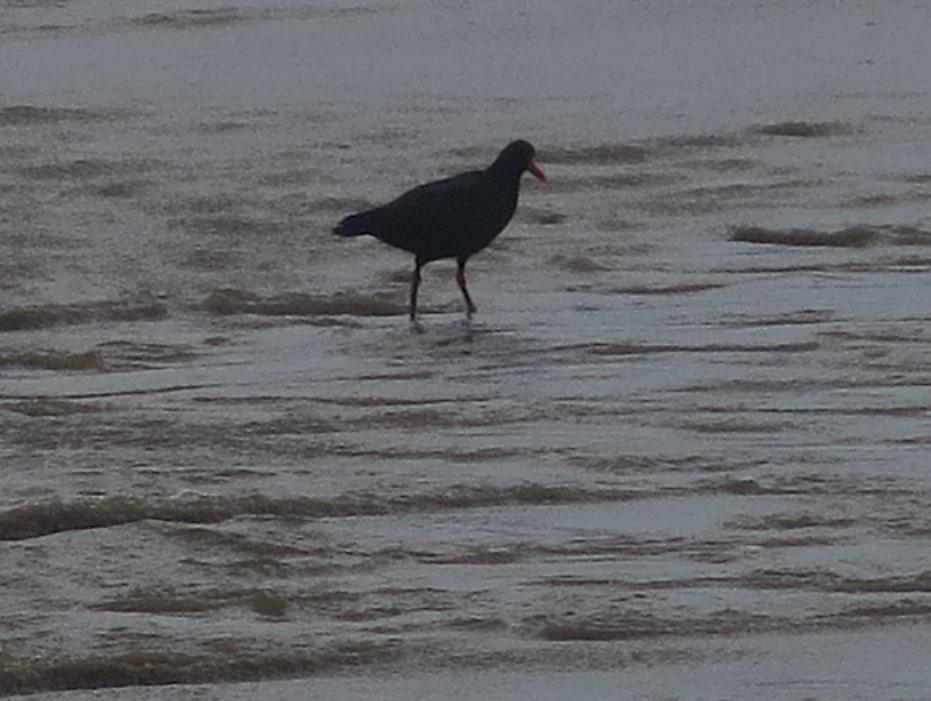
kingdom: Animalia
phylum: Chordata
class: Aves
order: Charadriiformes
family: Haematopodidae
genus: Haematopus
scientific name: Haematopus moquini
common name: African oystercatcher
